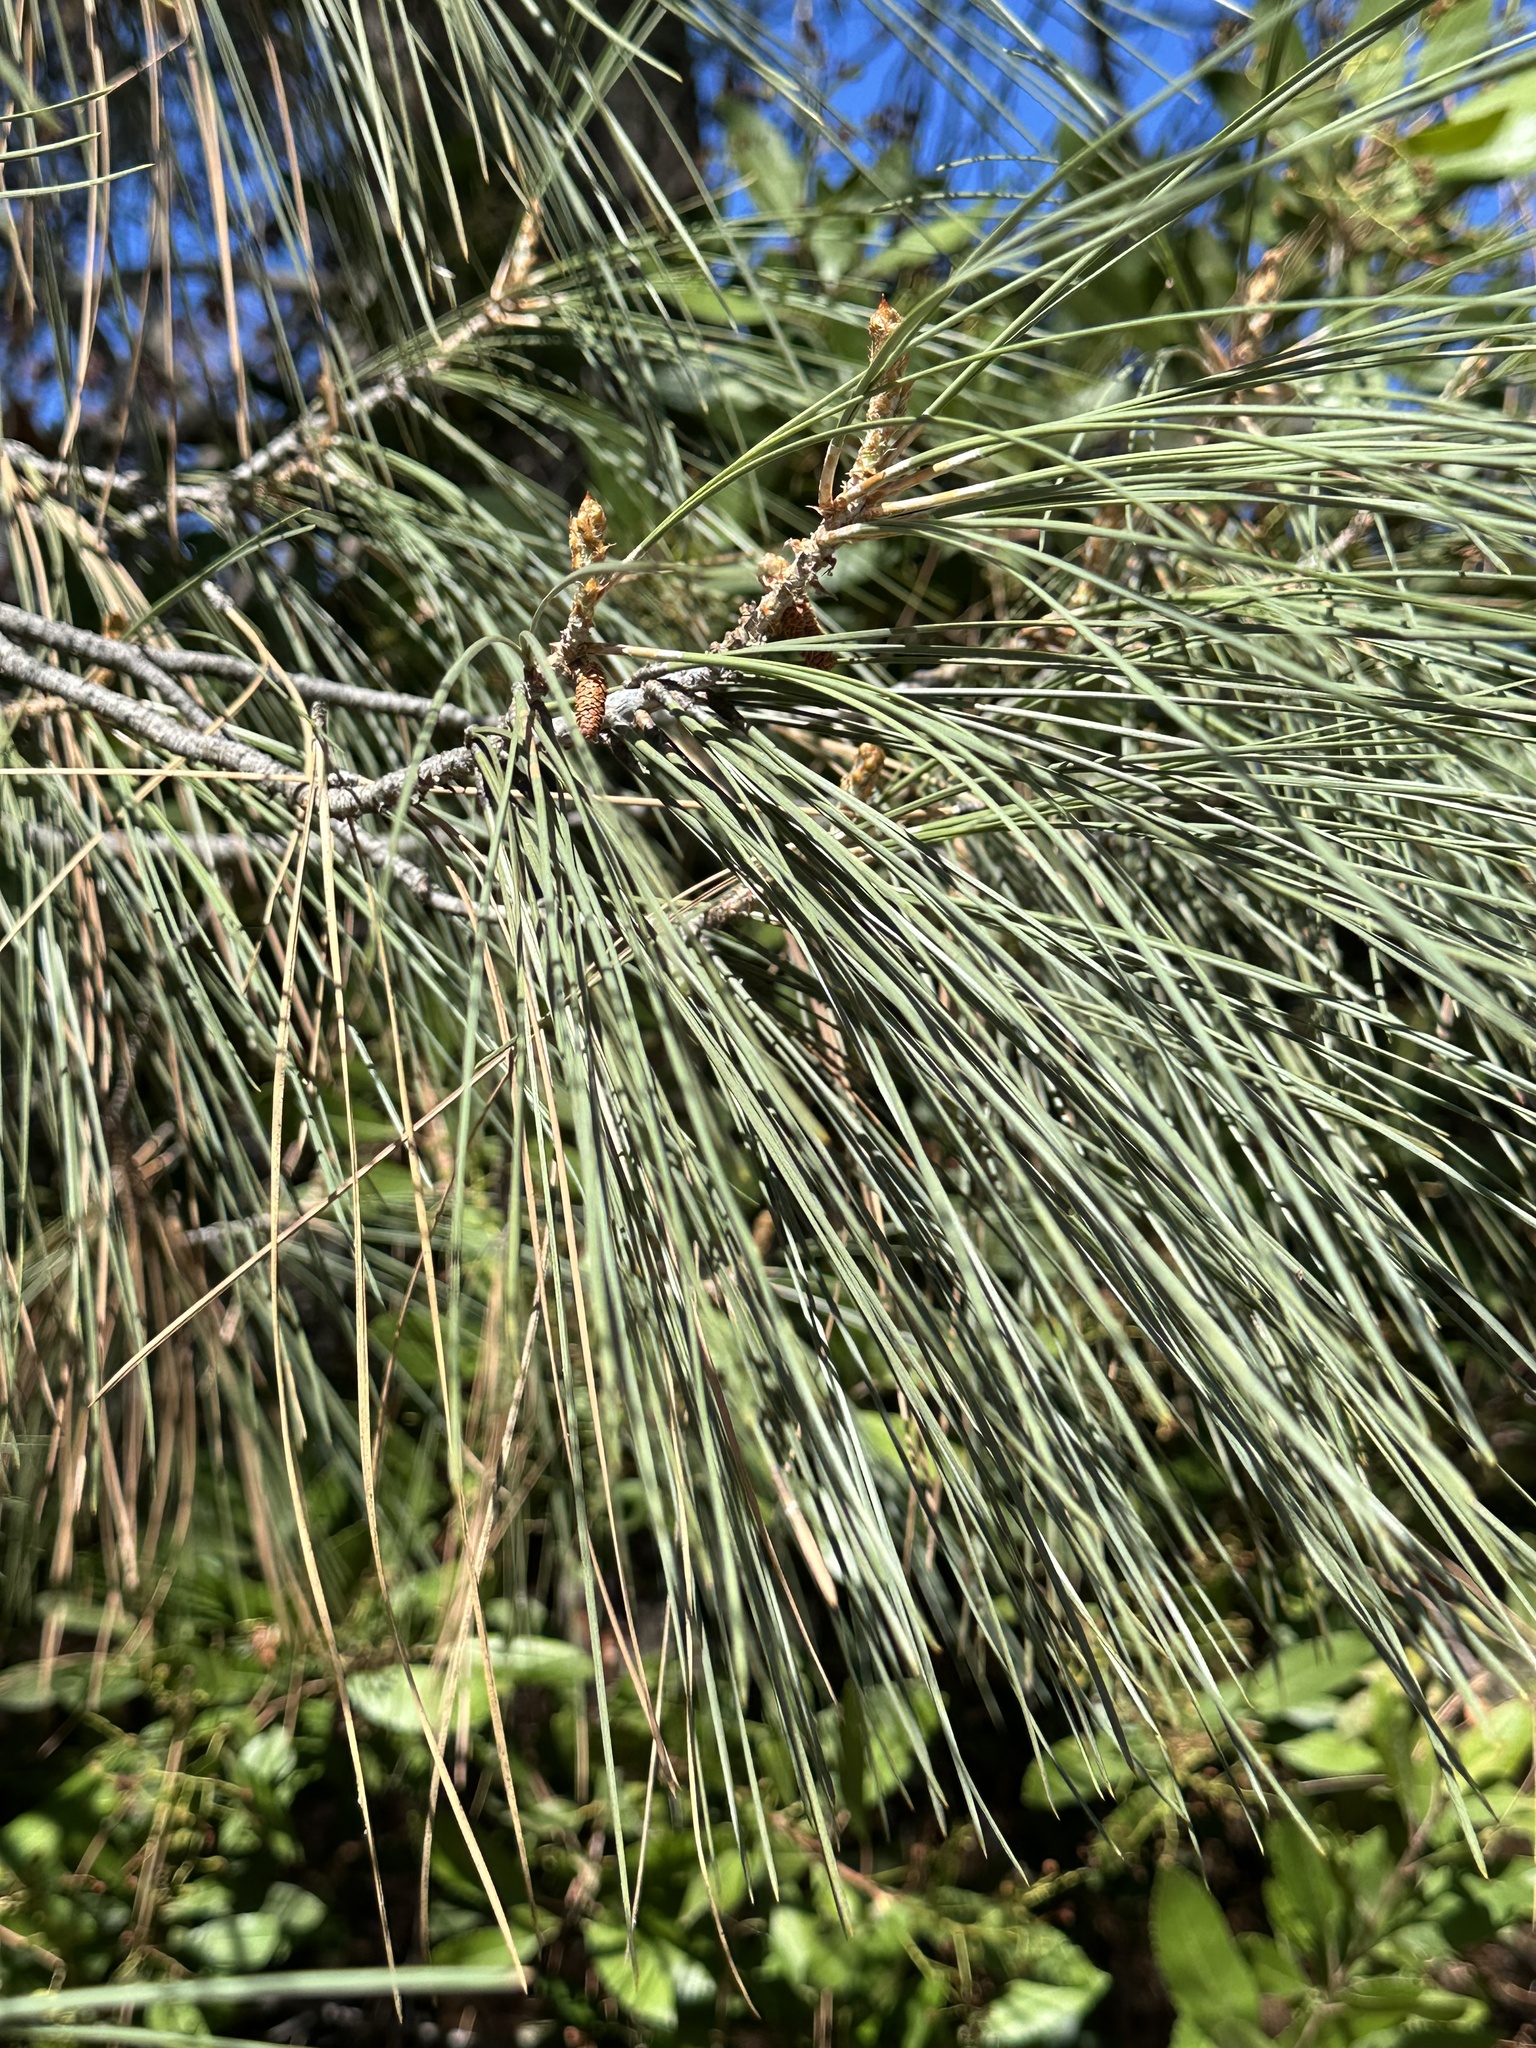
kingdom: Plantae
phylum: Tracheophyta
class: Pinopsida
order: Pinales
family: Pinaceae
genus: Pinus
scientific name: Pinus sabiniana
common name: Bull pine
